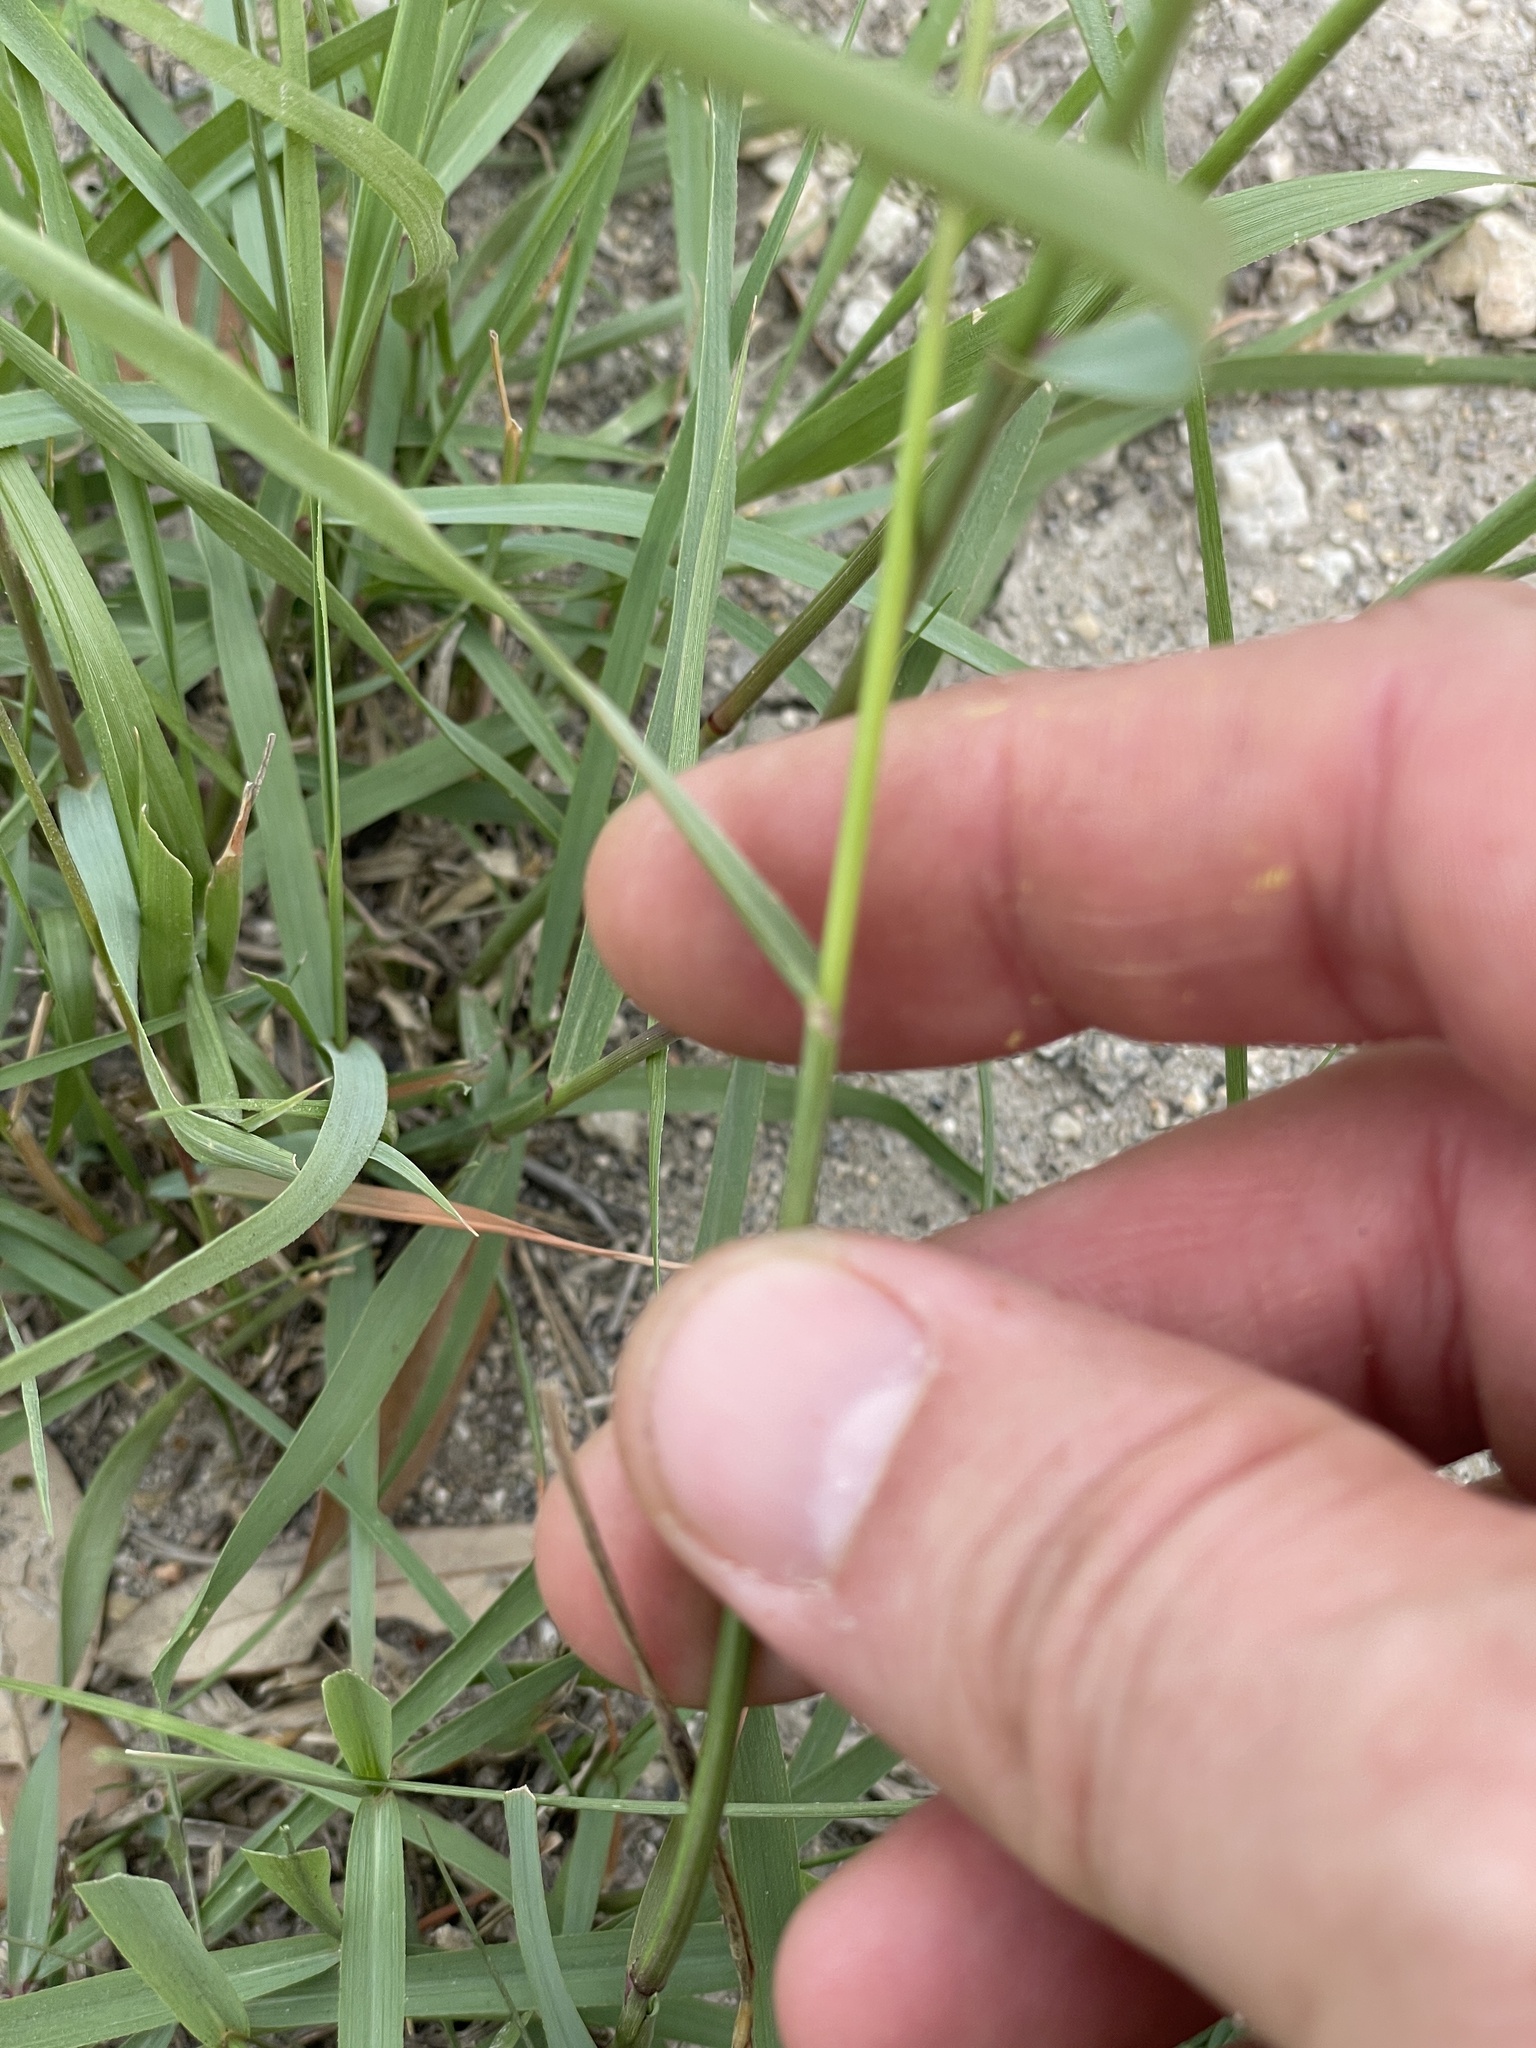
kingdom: Plantae
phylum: Tracheophyta
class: Liliopsida
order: Poales
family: Poaceae
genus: Tridens
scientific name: Tridens albescens
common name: White tridens
